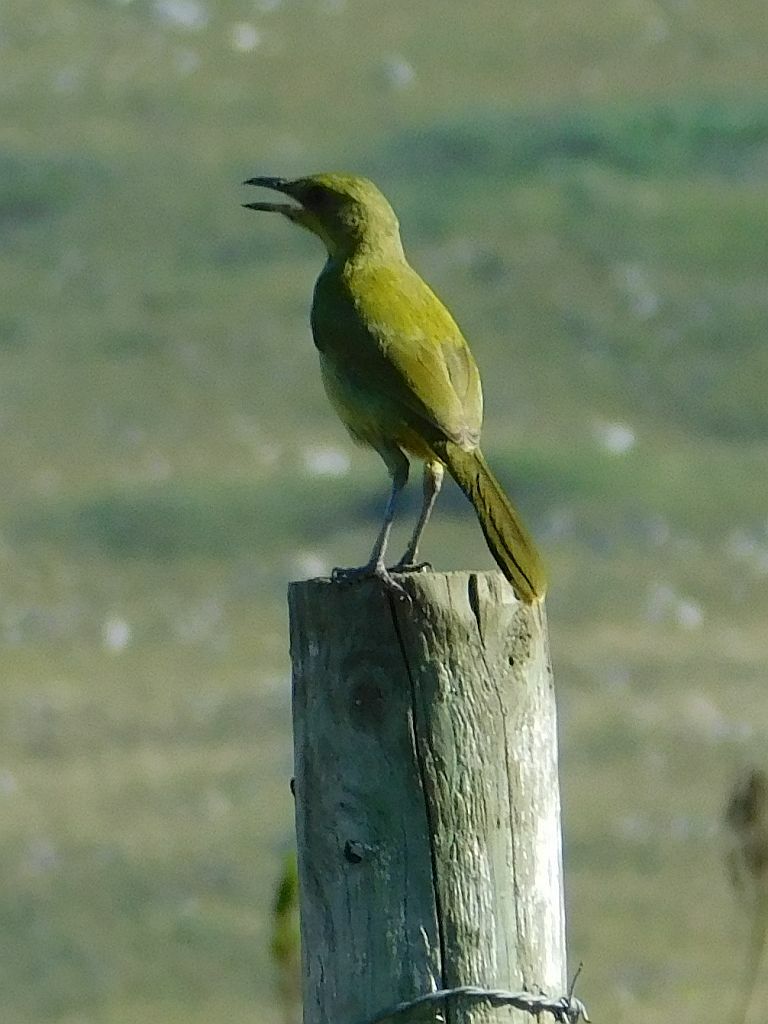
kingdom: Animalia
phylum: Chordata
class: Aves
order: Passeriformes
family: Malaconotidae
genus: Telophorus
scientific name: Telophorus zeylonus
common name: Bokmakierie
